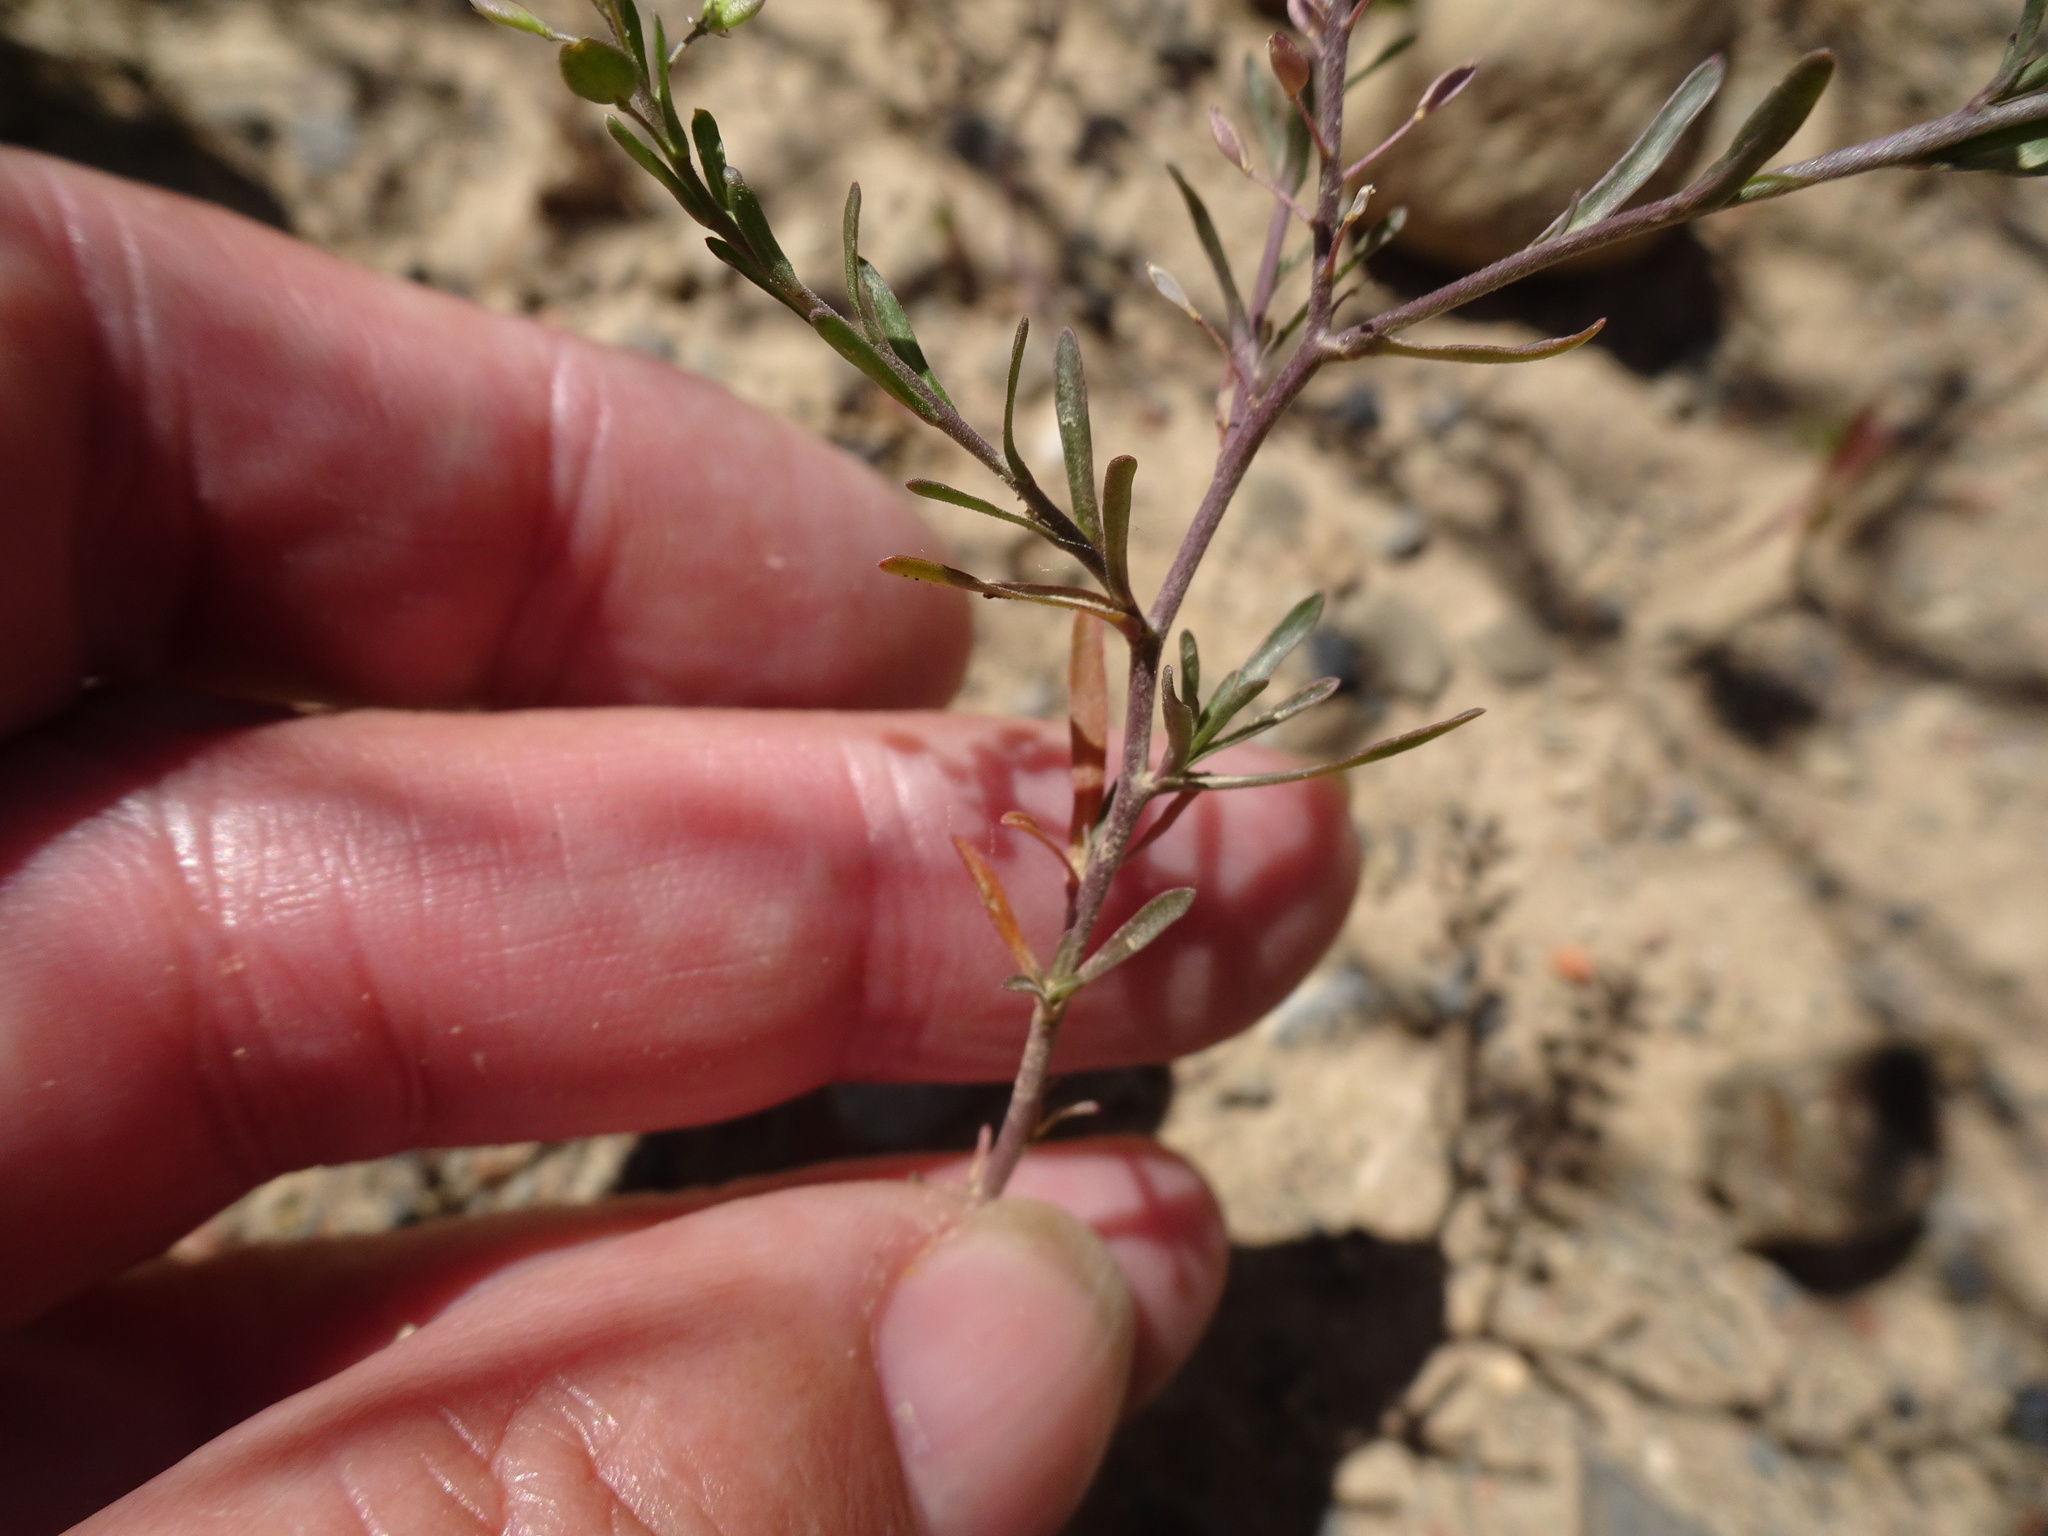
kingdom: Plantae
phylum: Tracheophyta
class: Magnoliopsida
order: Brassicales
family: Brassicaceae
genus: Lepidium
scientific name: Lepidium ruderale
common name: Narrow-leaved pepperwort
